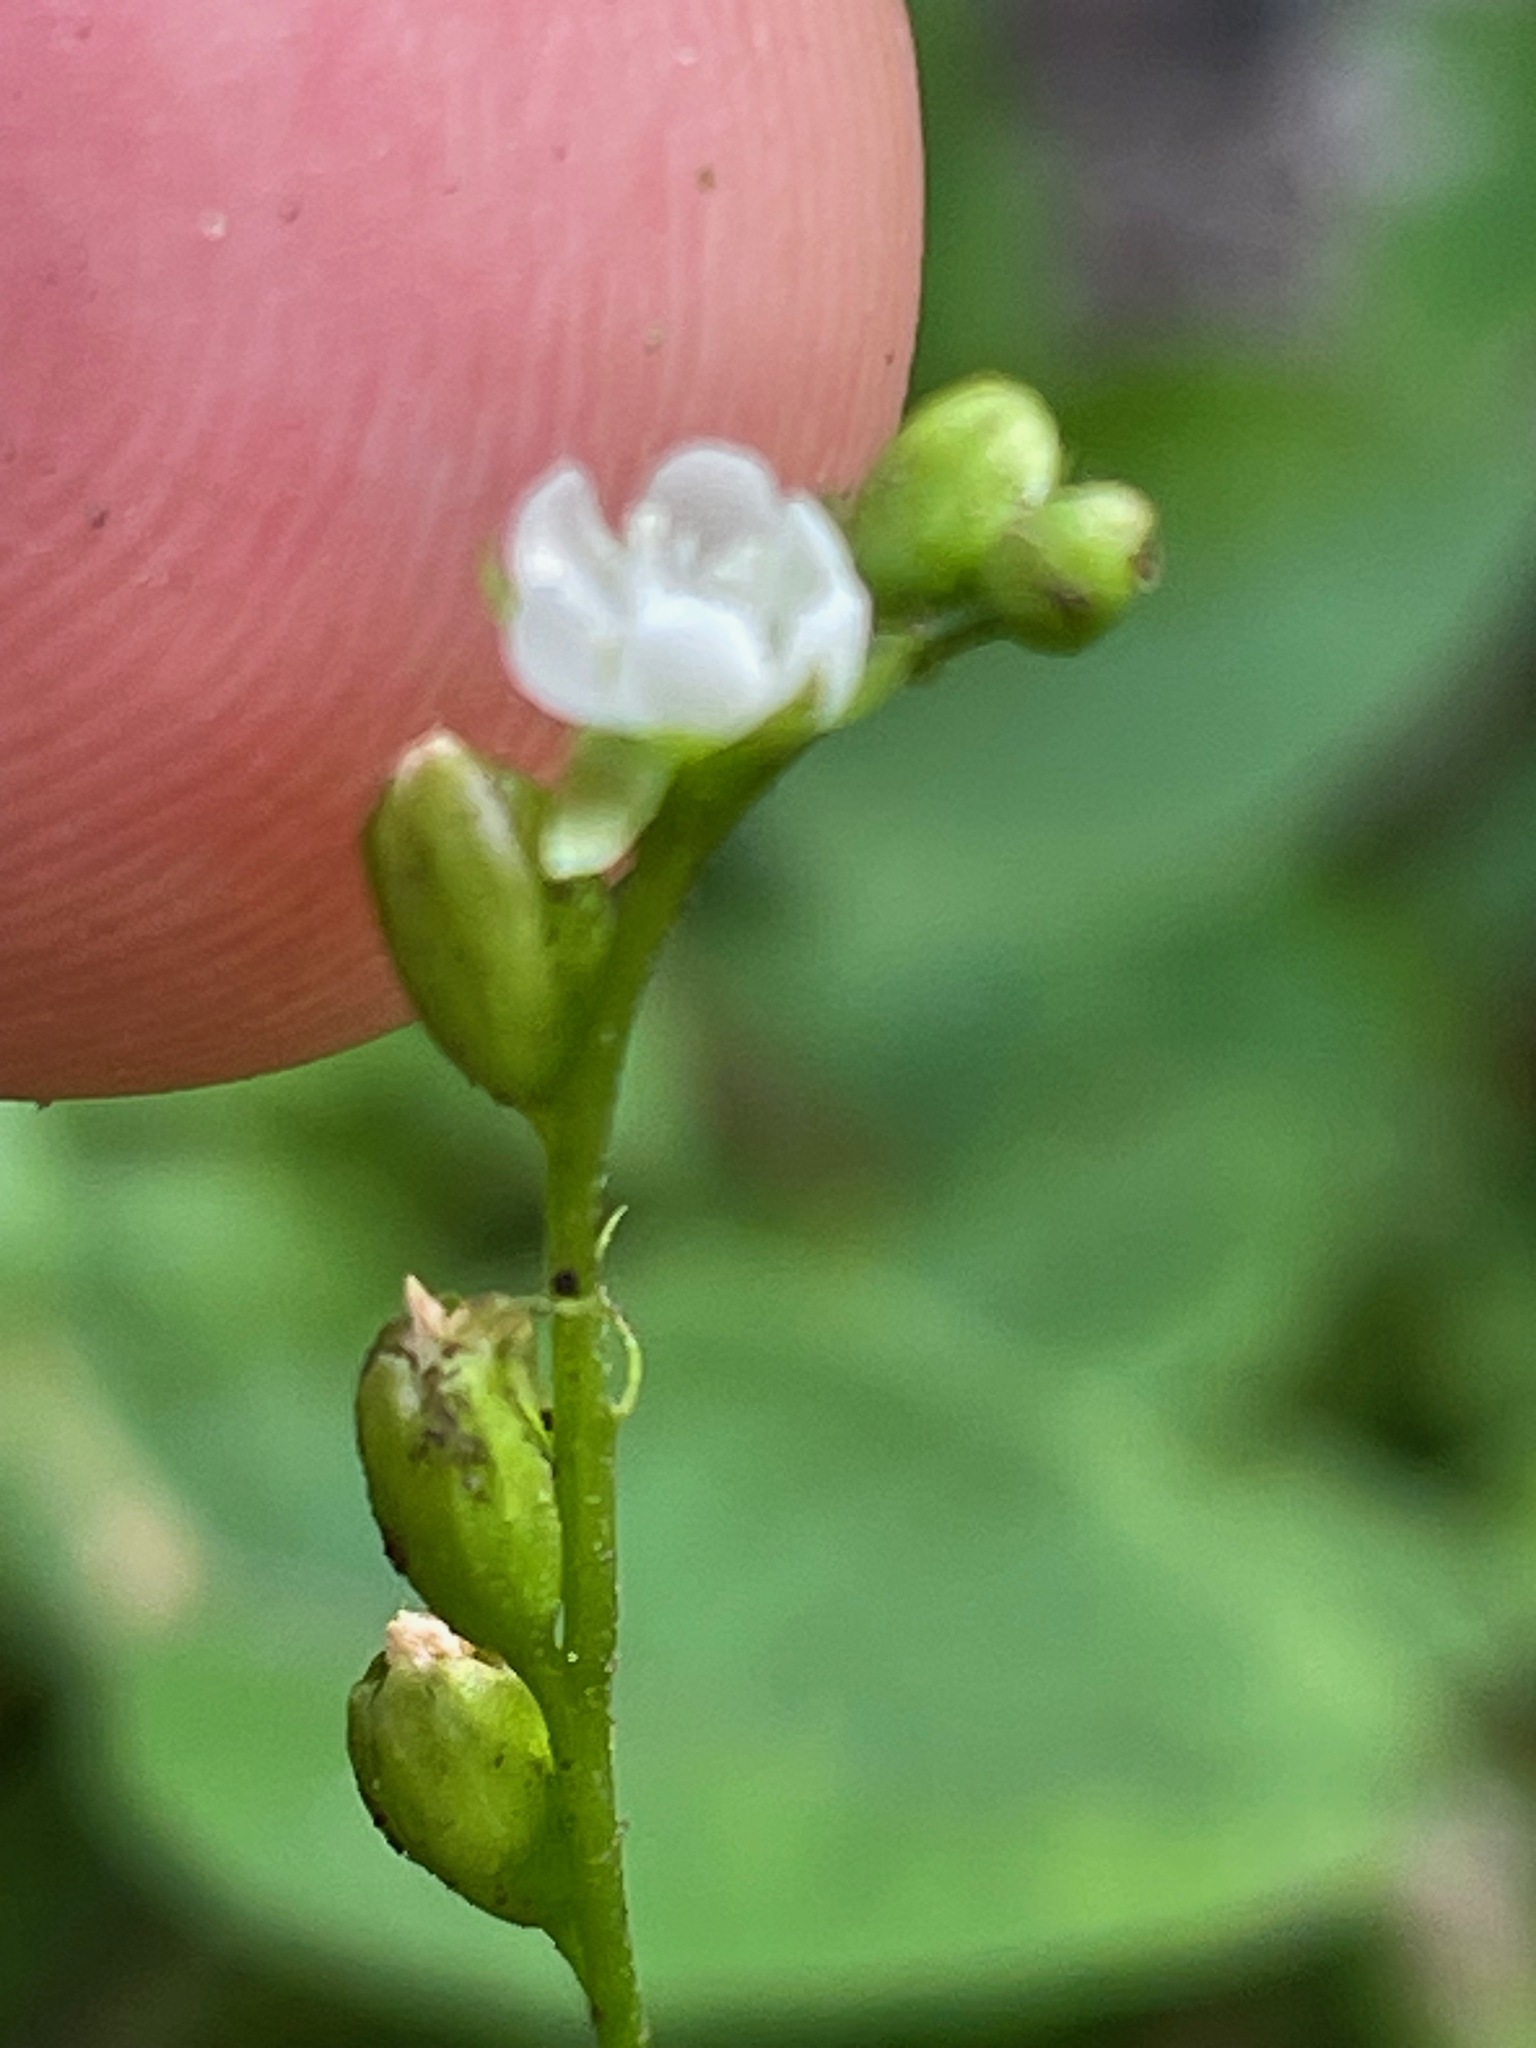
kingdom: Plantae
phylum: Tracheophyta
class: Magnoliopsida
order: Caryophyllales
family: Droseraceae
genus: Drosera
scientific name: Drosera rotundifolia
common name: Round-leaved sundew
